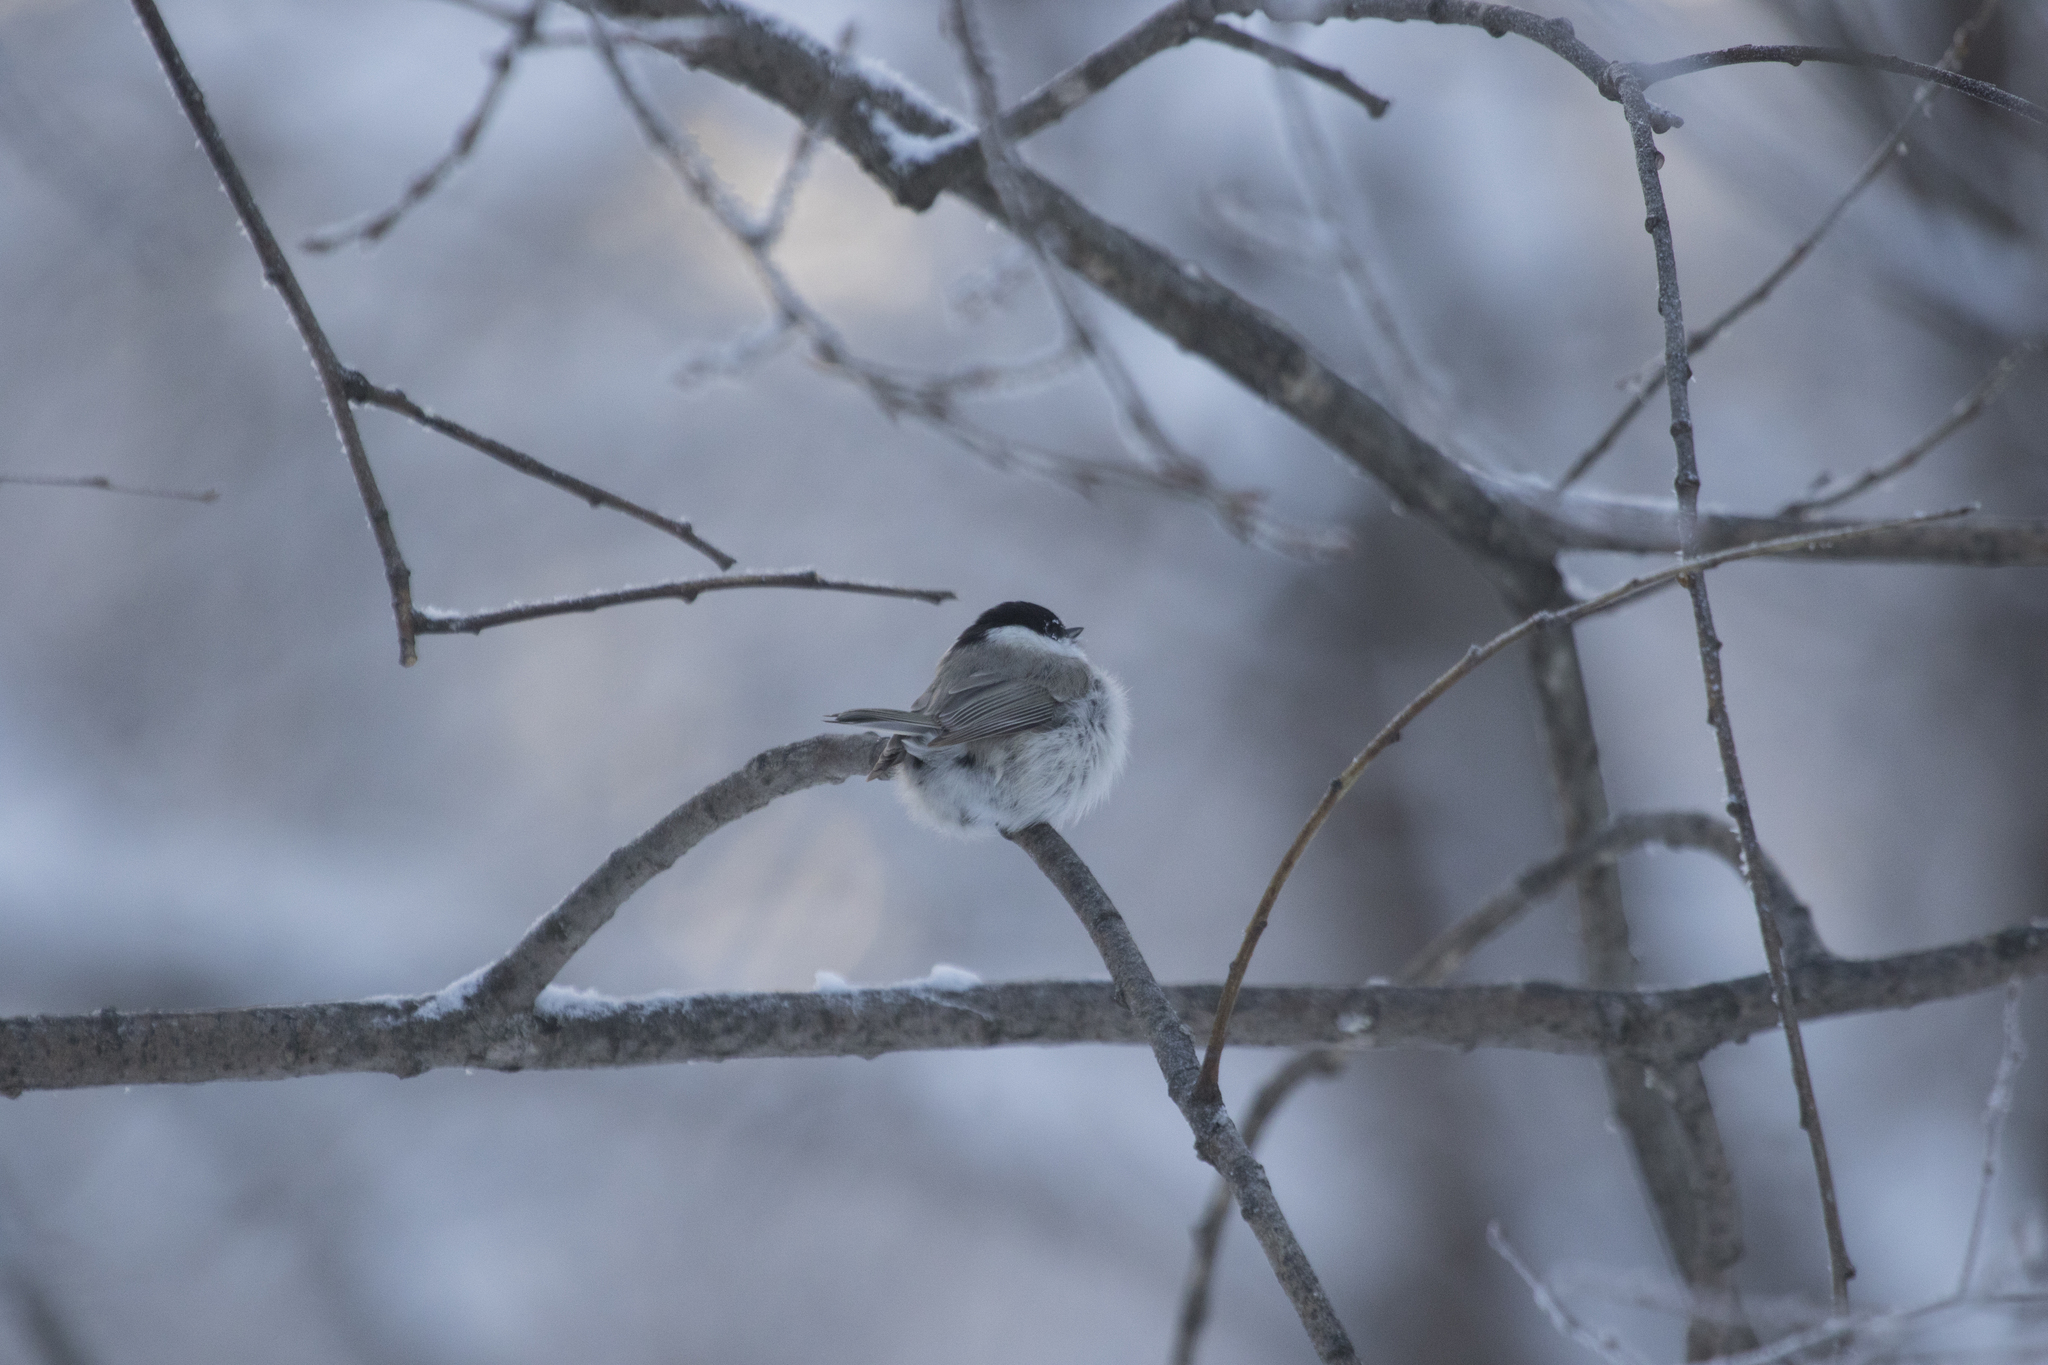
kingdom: Animalia
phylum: Chordata
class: Aves
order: Passeriformes
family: Paridae
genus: Poecile
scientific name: Poecile palustris
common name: Marsh tit
